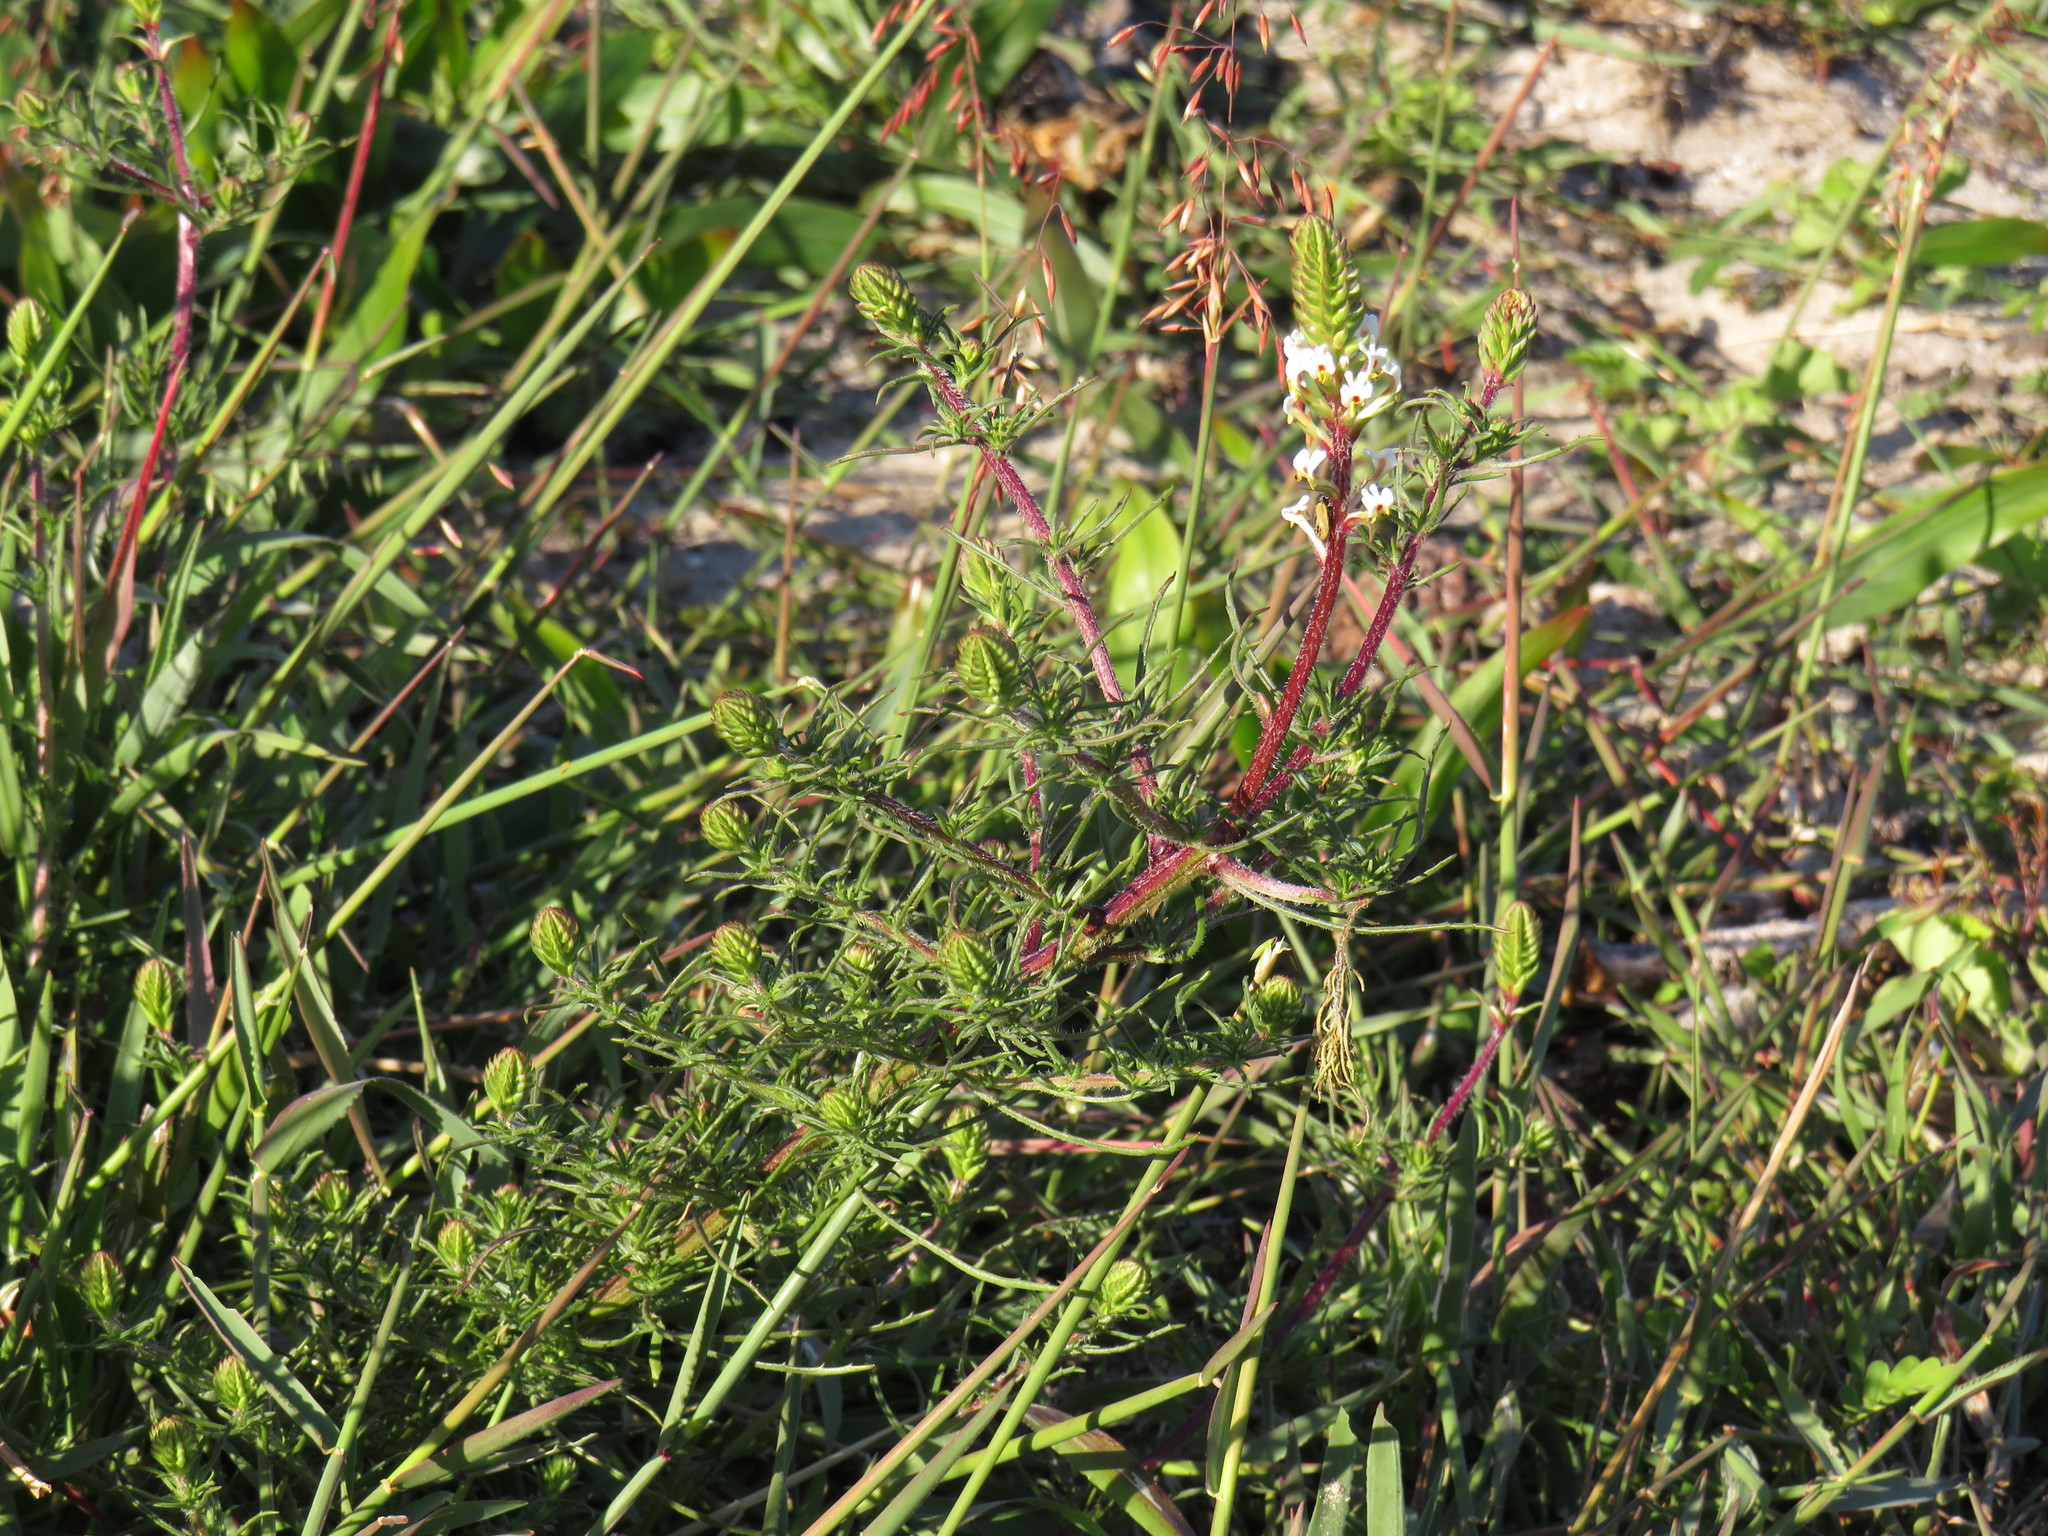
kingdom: Plantae
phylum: Tracheophyta
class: Magnoliopsida
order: Lamiales
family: Scrophulariaceae
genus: Hebenstretia
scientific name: Hebenstretia repens
